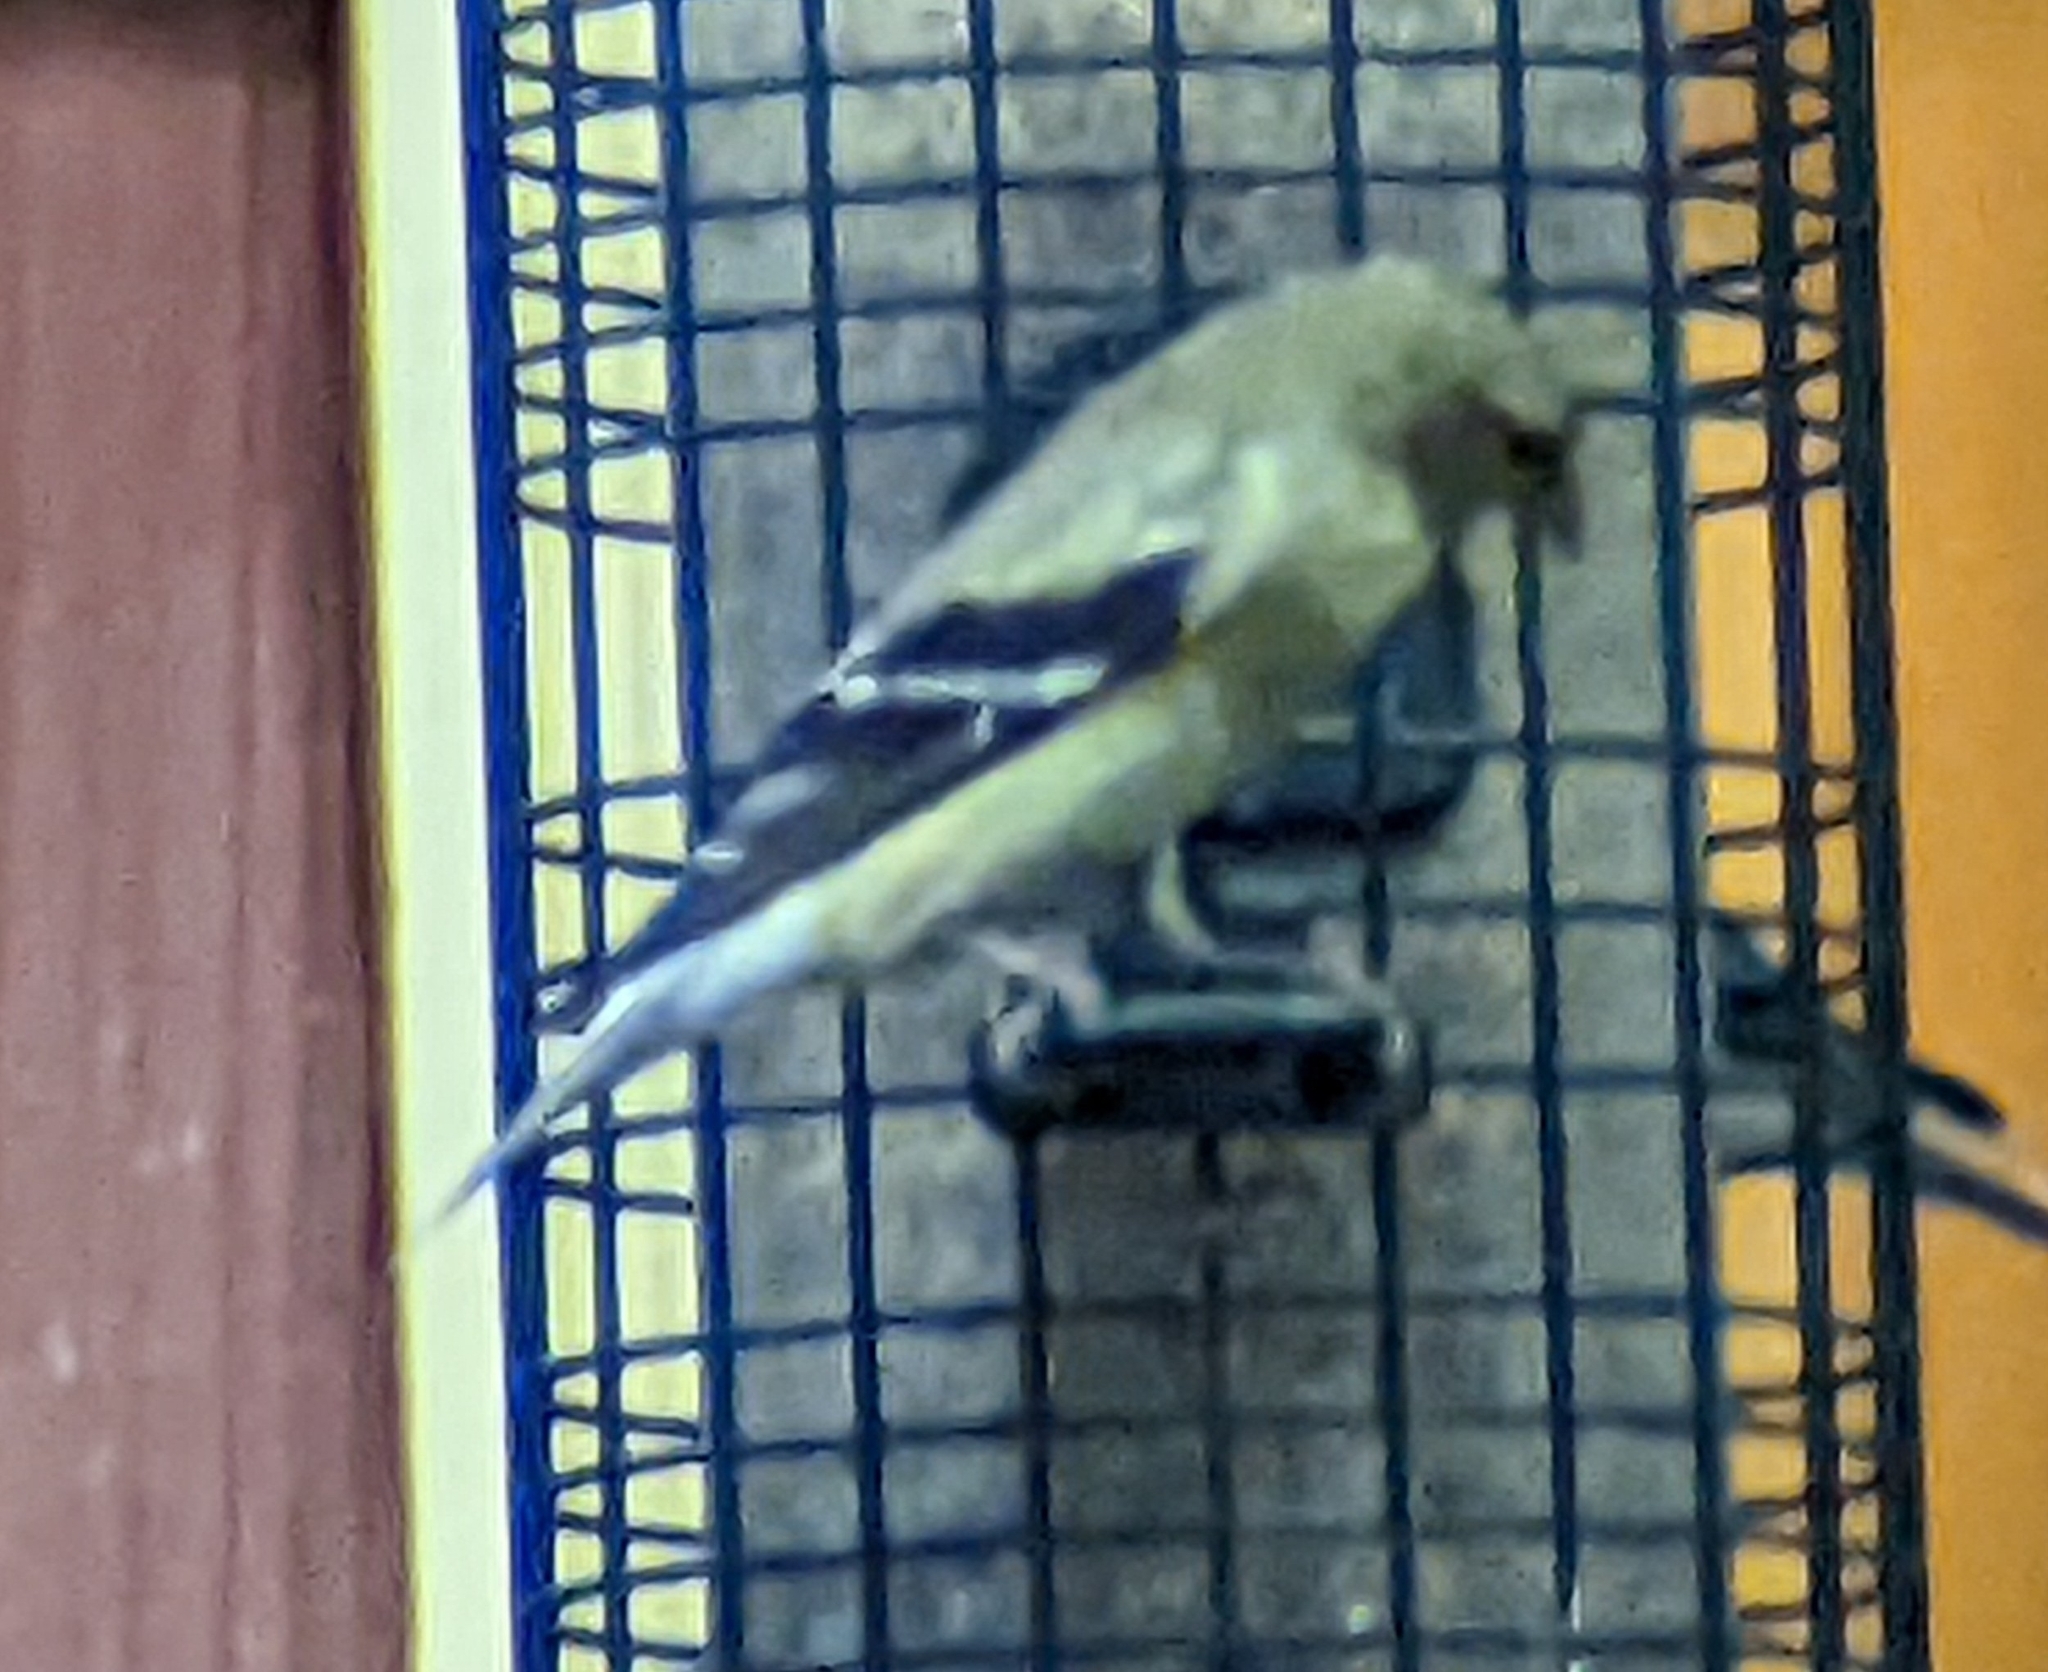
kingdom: Animalia
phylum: Chordata
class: Aves
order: Passeriformes
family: Fringillidae
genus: Spinus
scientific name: Spinus tristis
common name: American goldfinch
